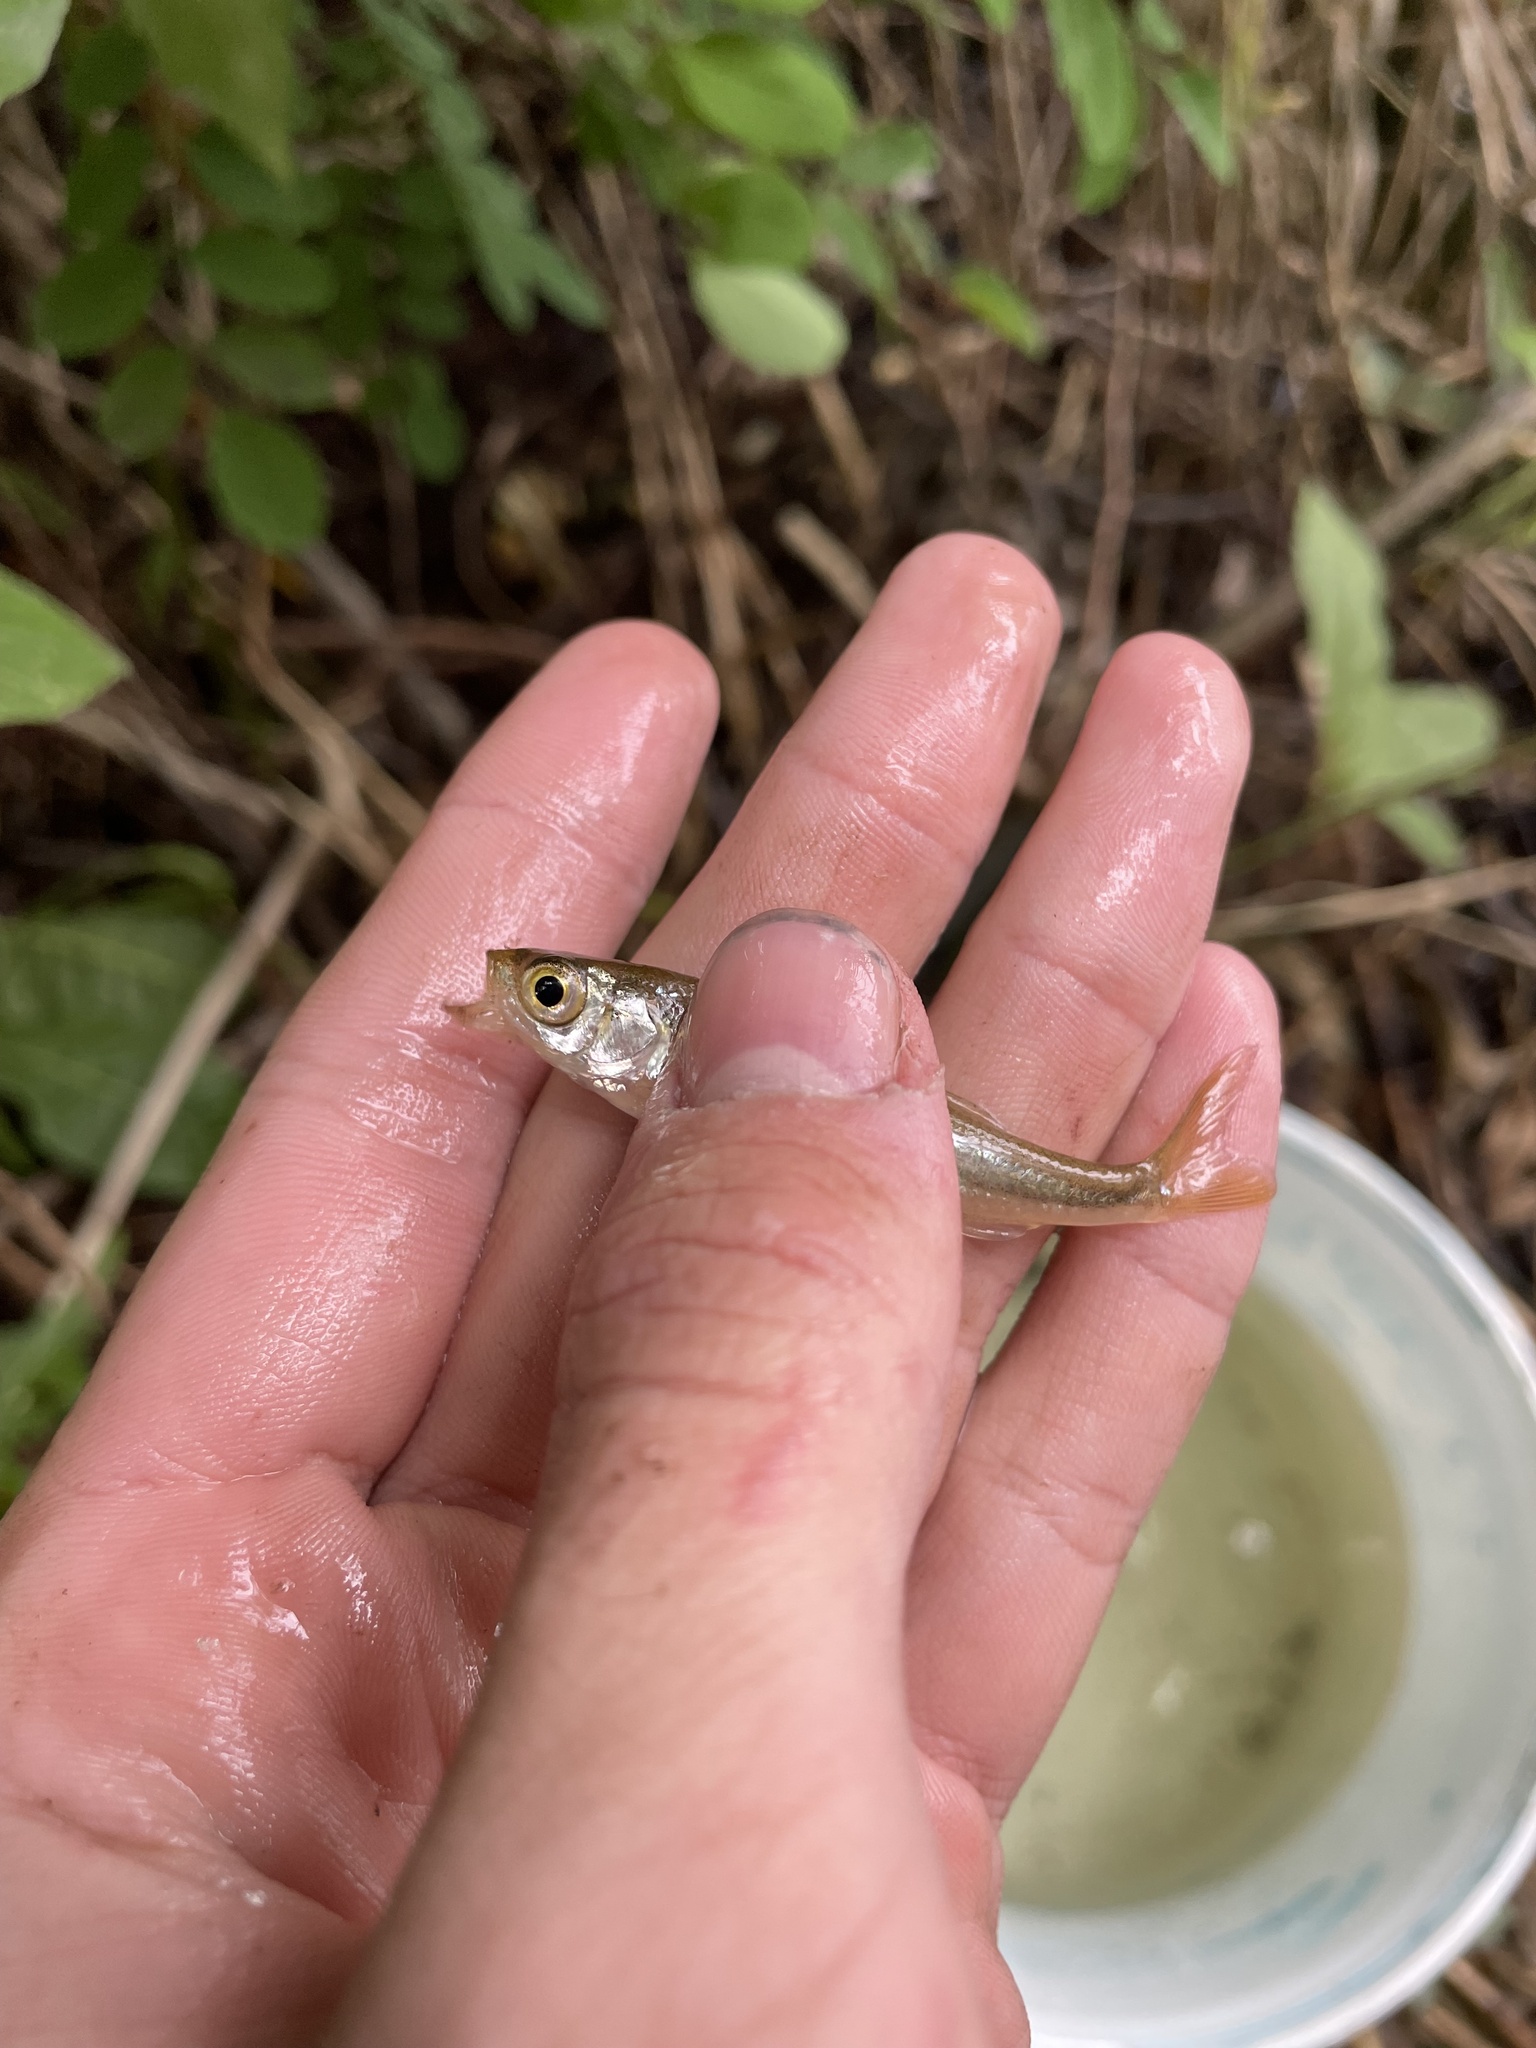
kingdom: Animalia
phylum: Chordata
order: Cypriniformes
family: Cyprinidae
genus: Leucaspius
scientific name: Leucaspius delineatus
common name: Sunbleak
